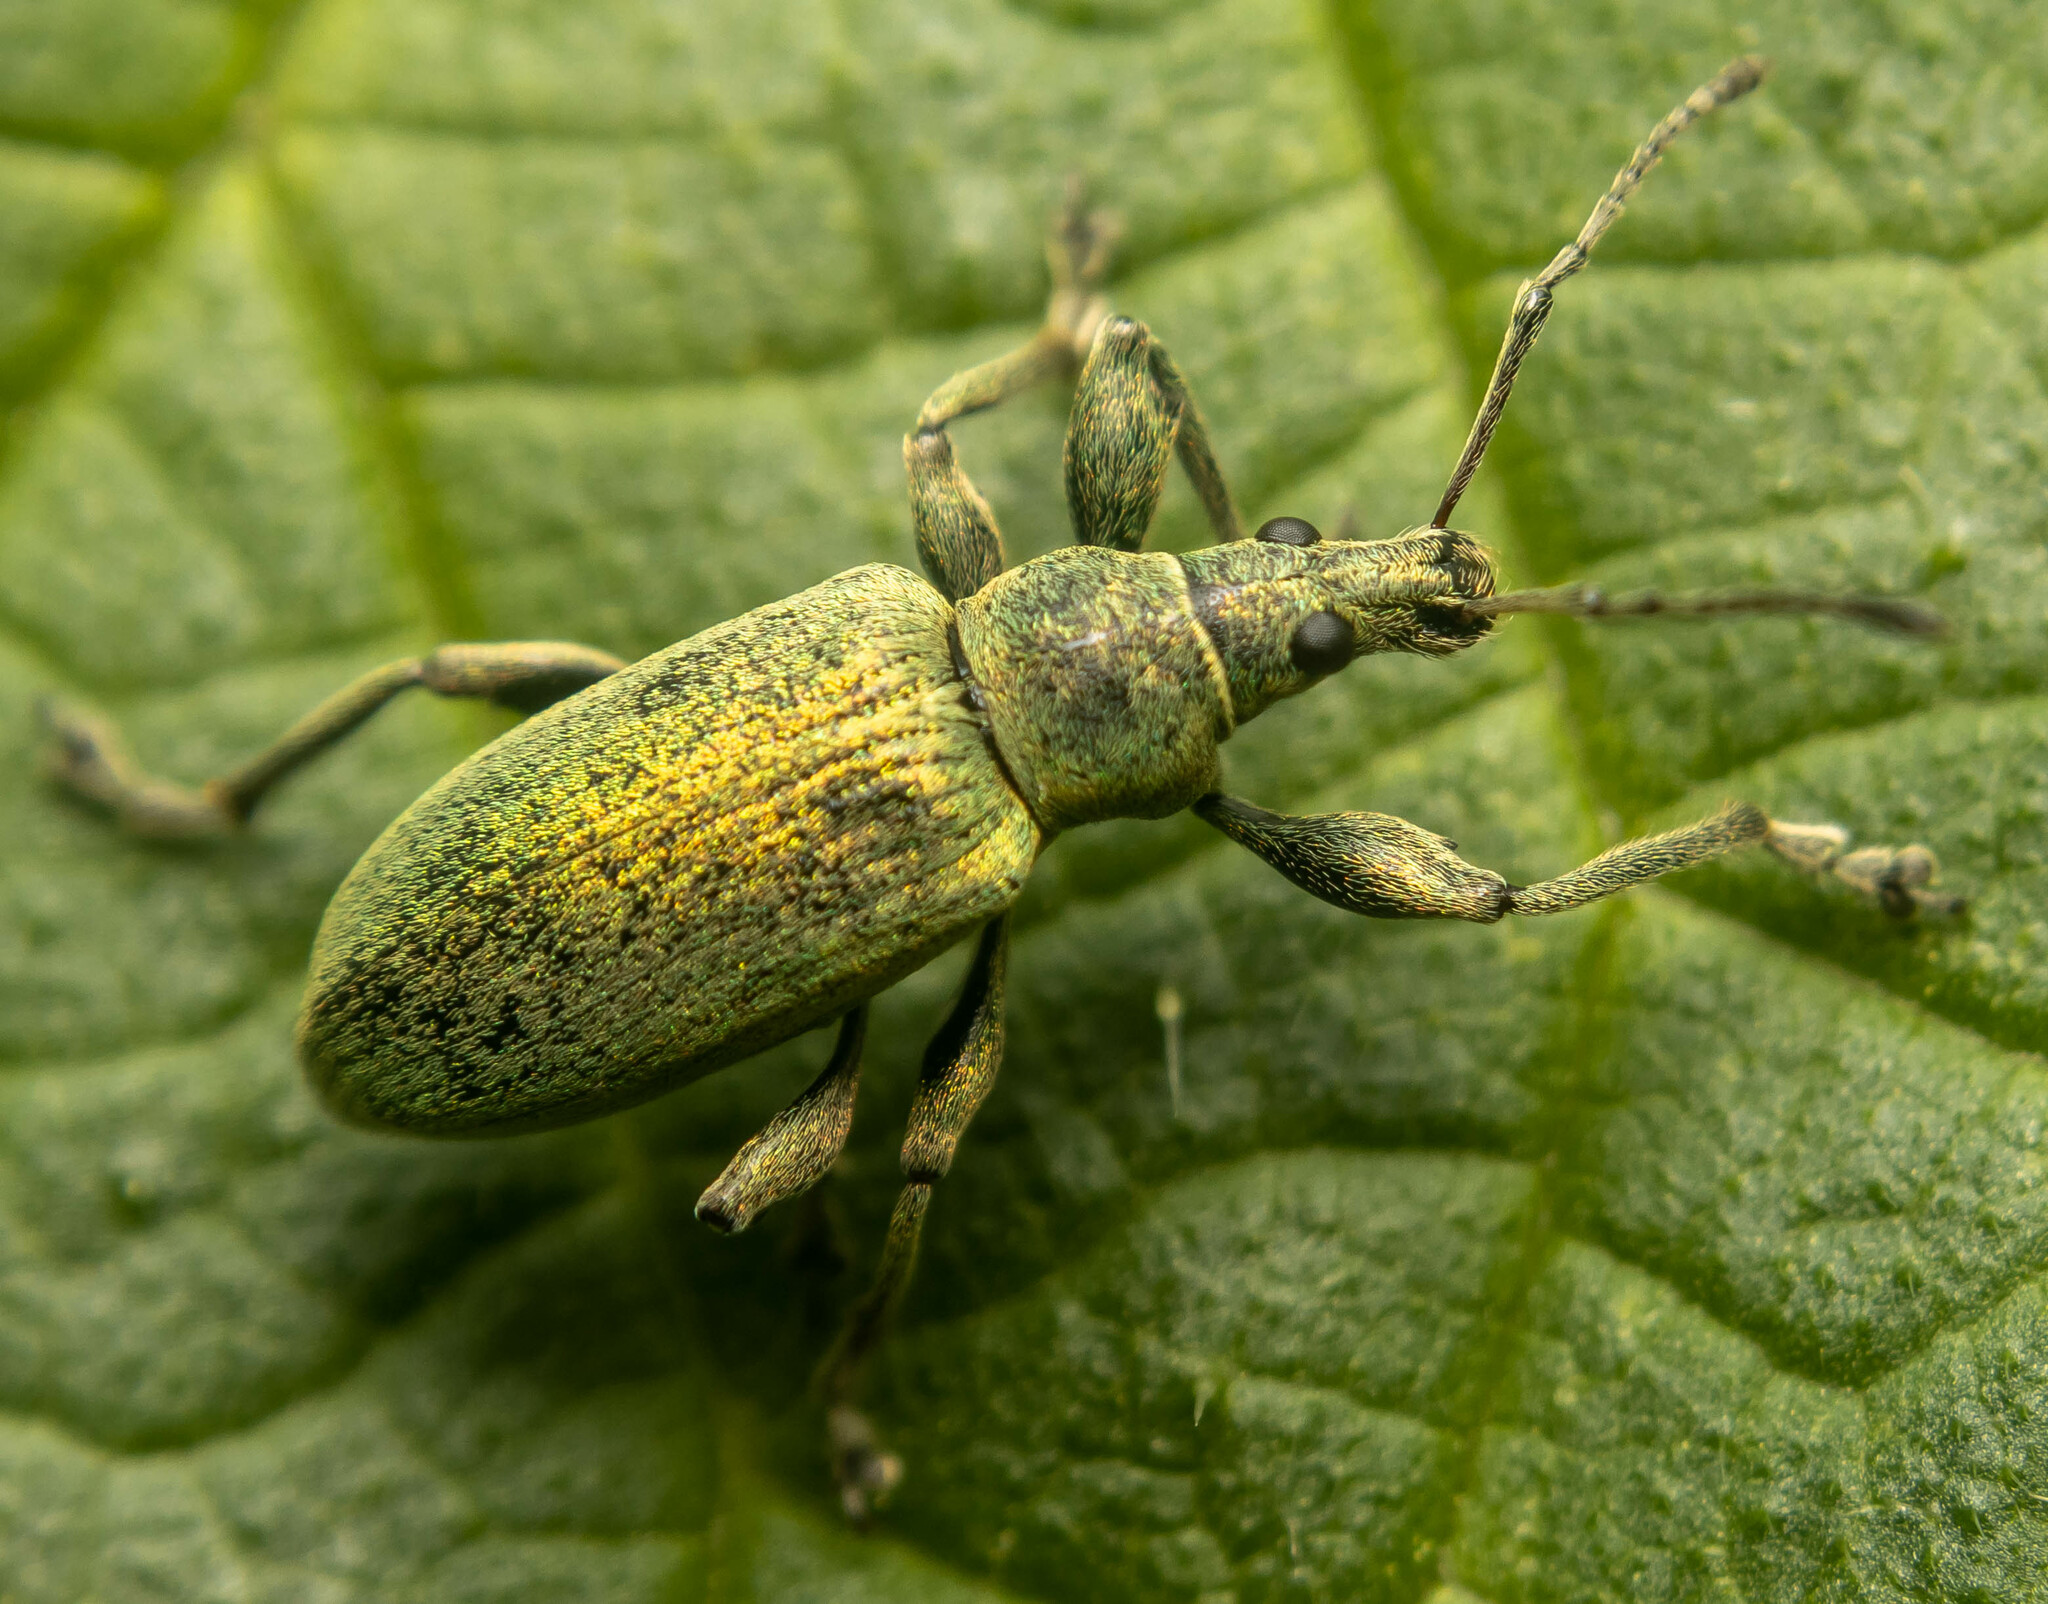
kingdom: Animalia
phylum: Arthropoda
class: Insecta
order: Coleoptera
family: Curculionidae
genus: Phyllobius
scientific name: Phyllobius pomaceus
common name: Green nettle weevil
